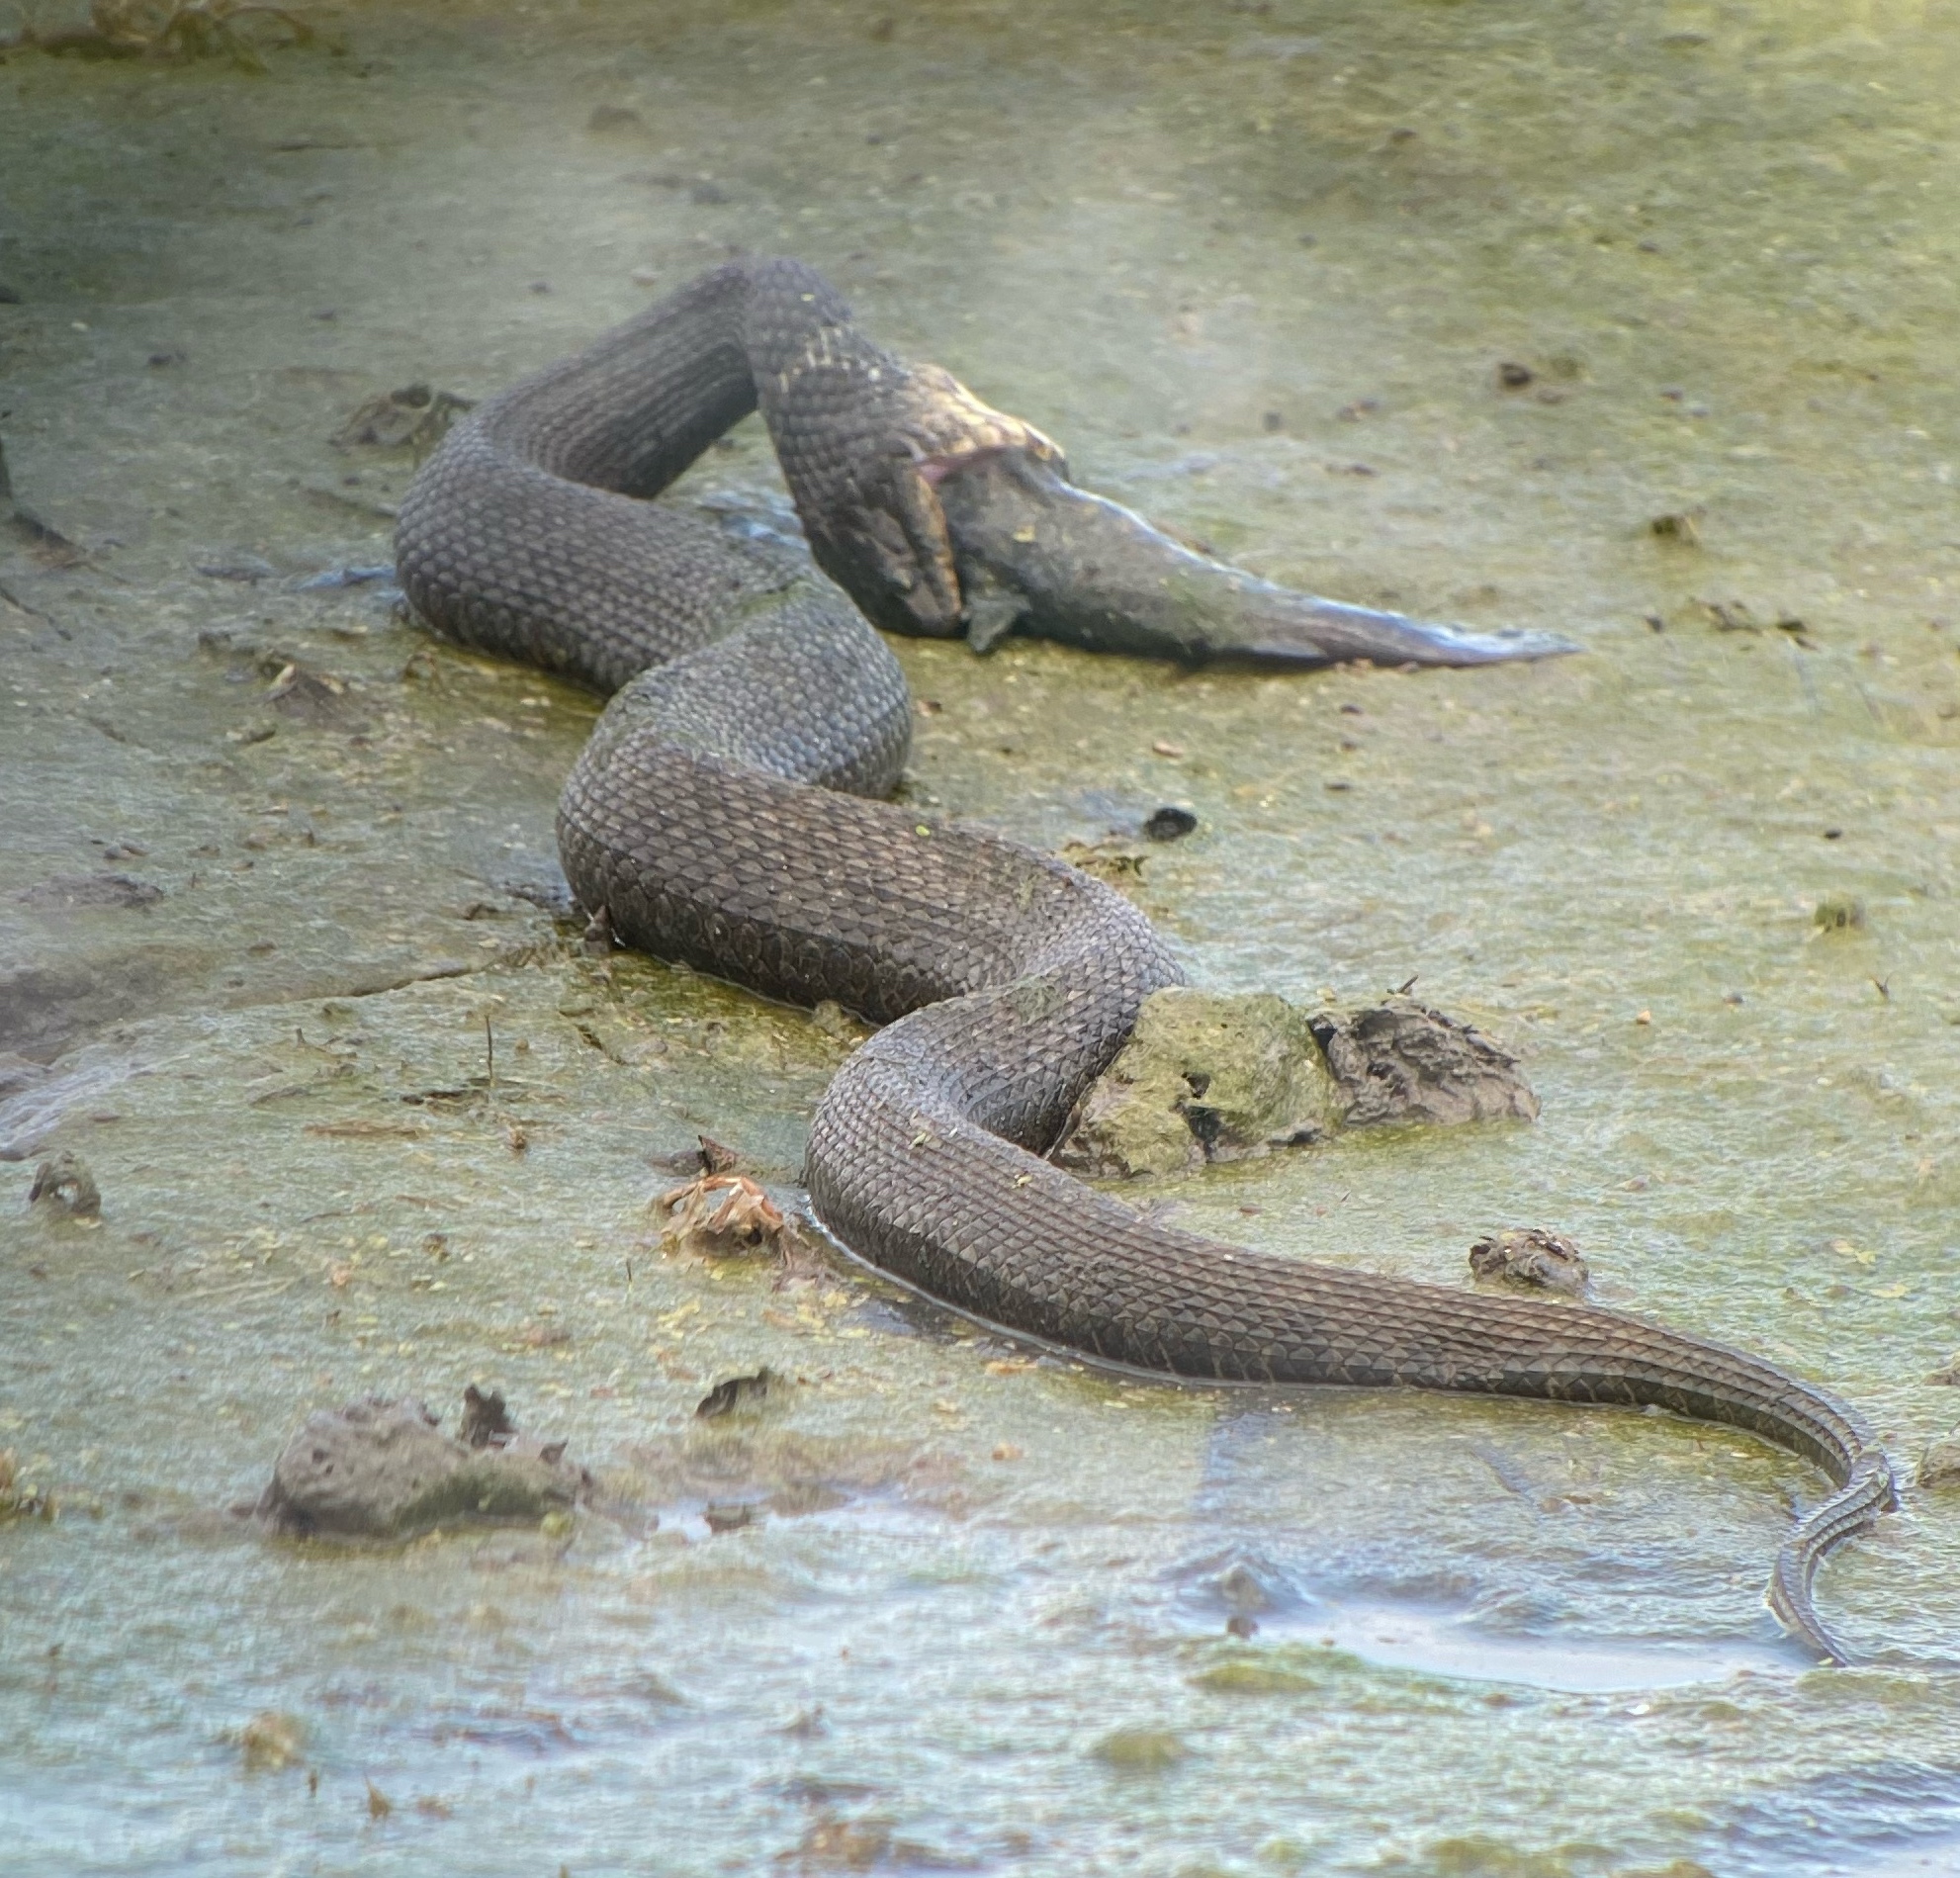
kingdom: Animalia
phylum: Chordata
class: Squamata
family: Colubridae
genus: Nerodia
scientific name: Nerodia sipedon
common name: Northern water snake
